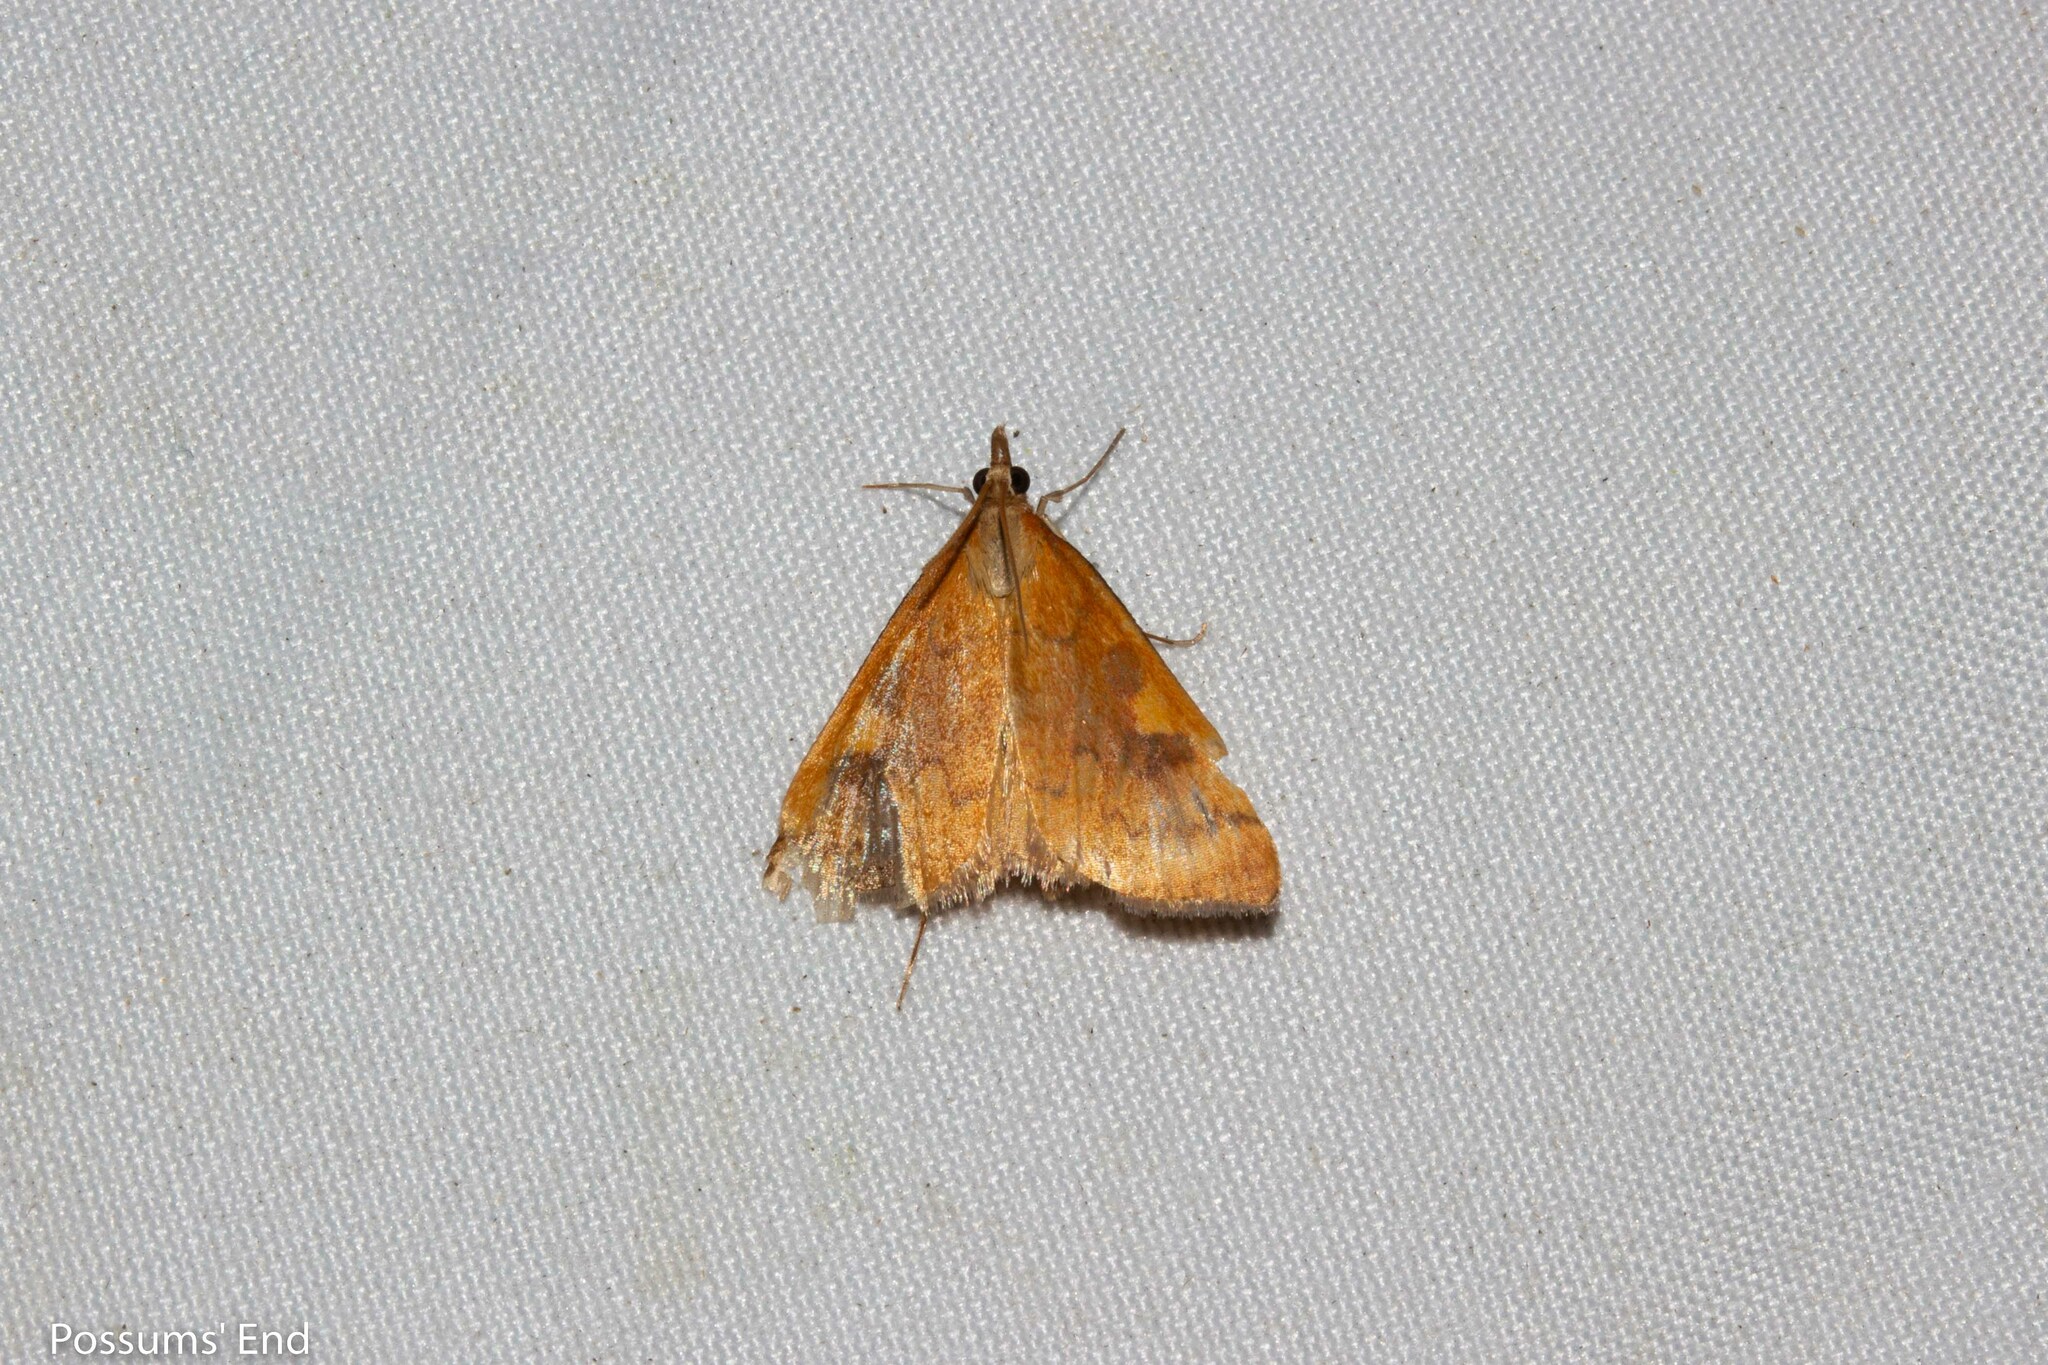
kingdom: Animalia
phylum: Arthropoda
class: Insecta
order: Lepidoptera
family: Crambidae
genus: Udea
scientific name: Udea Mnesictena flavidalis
